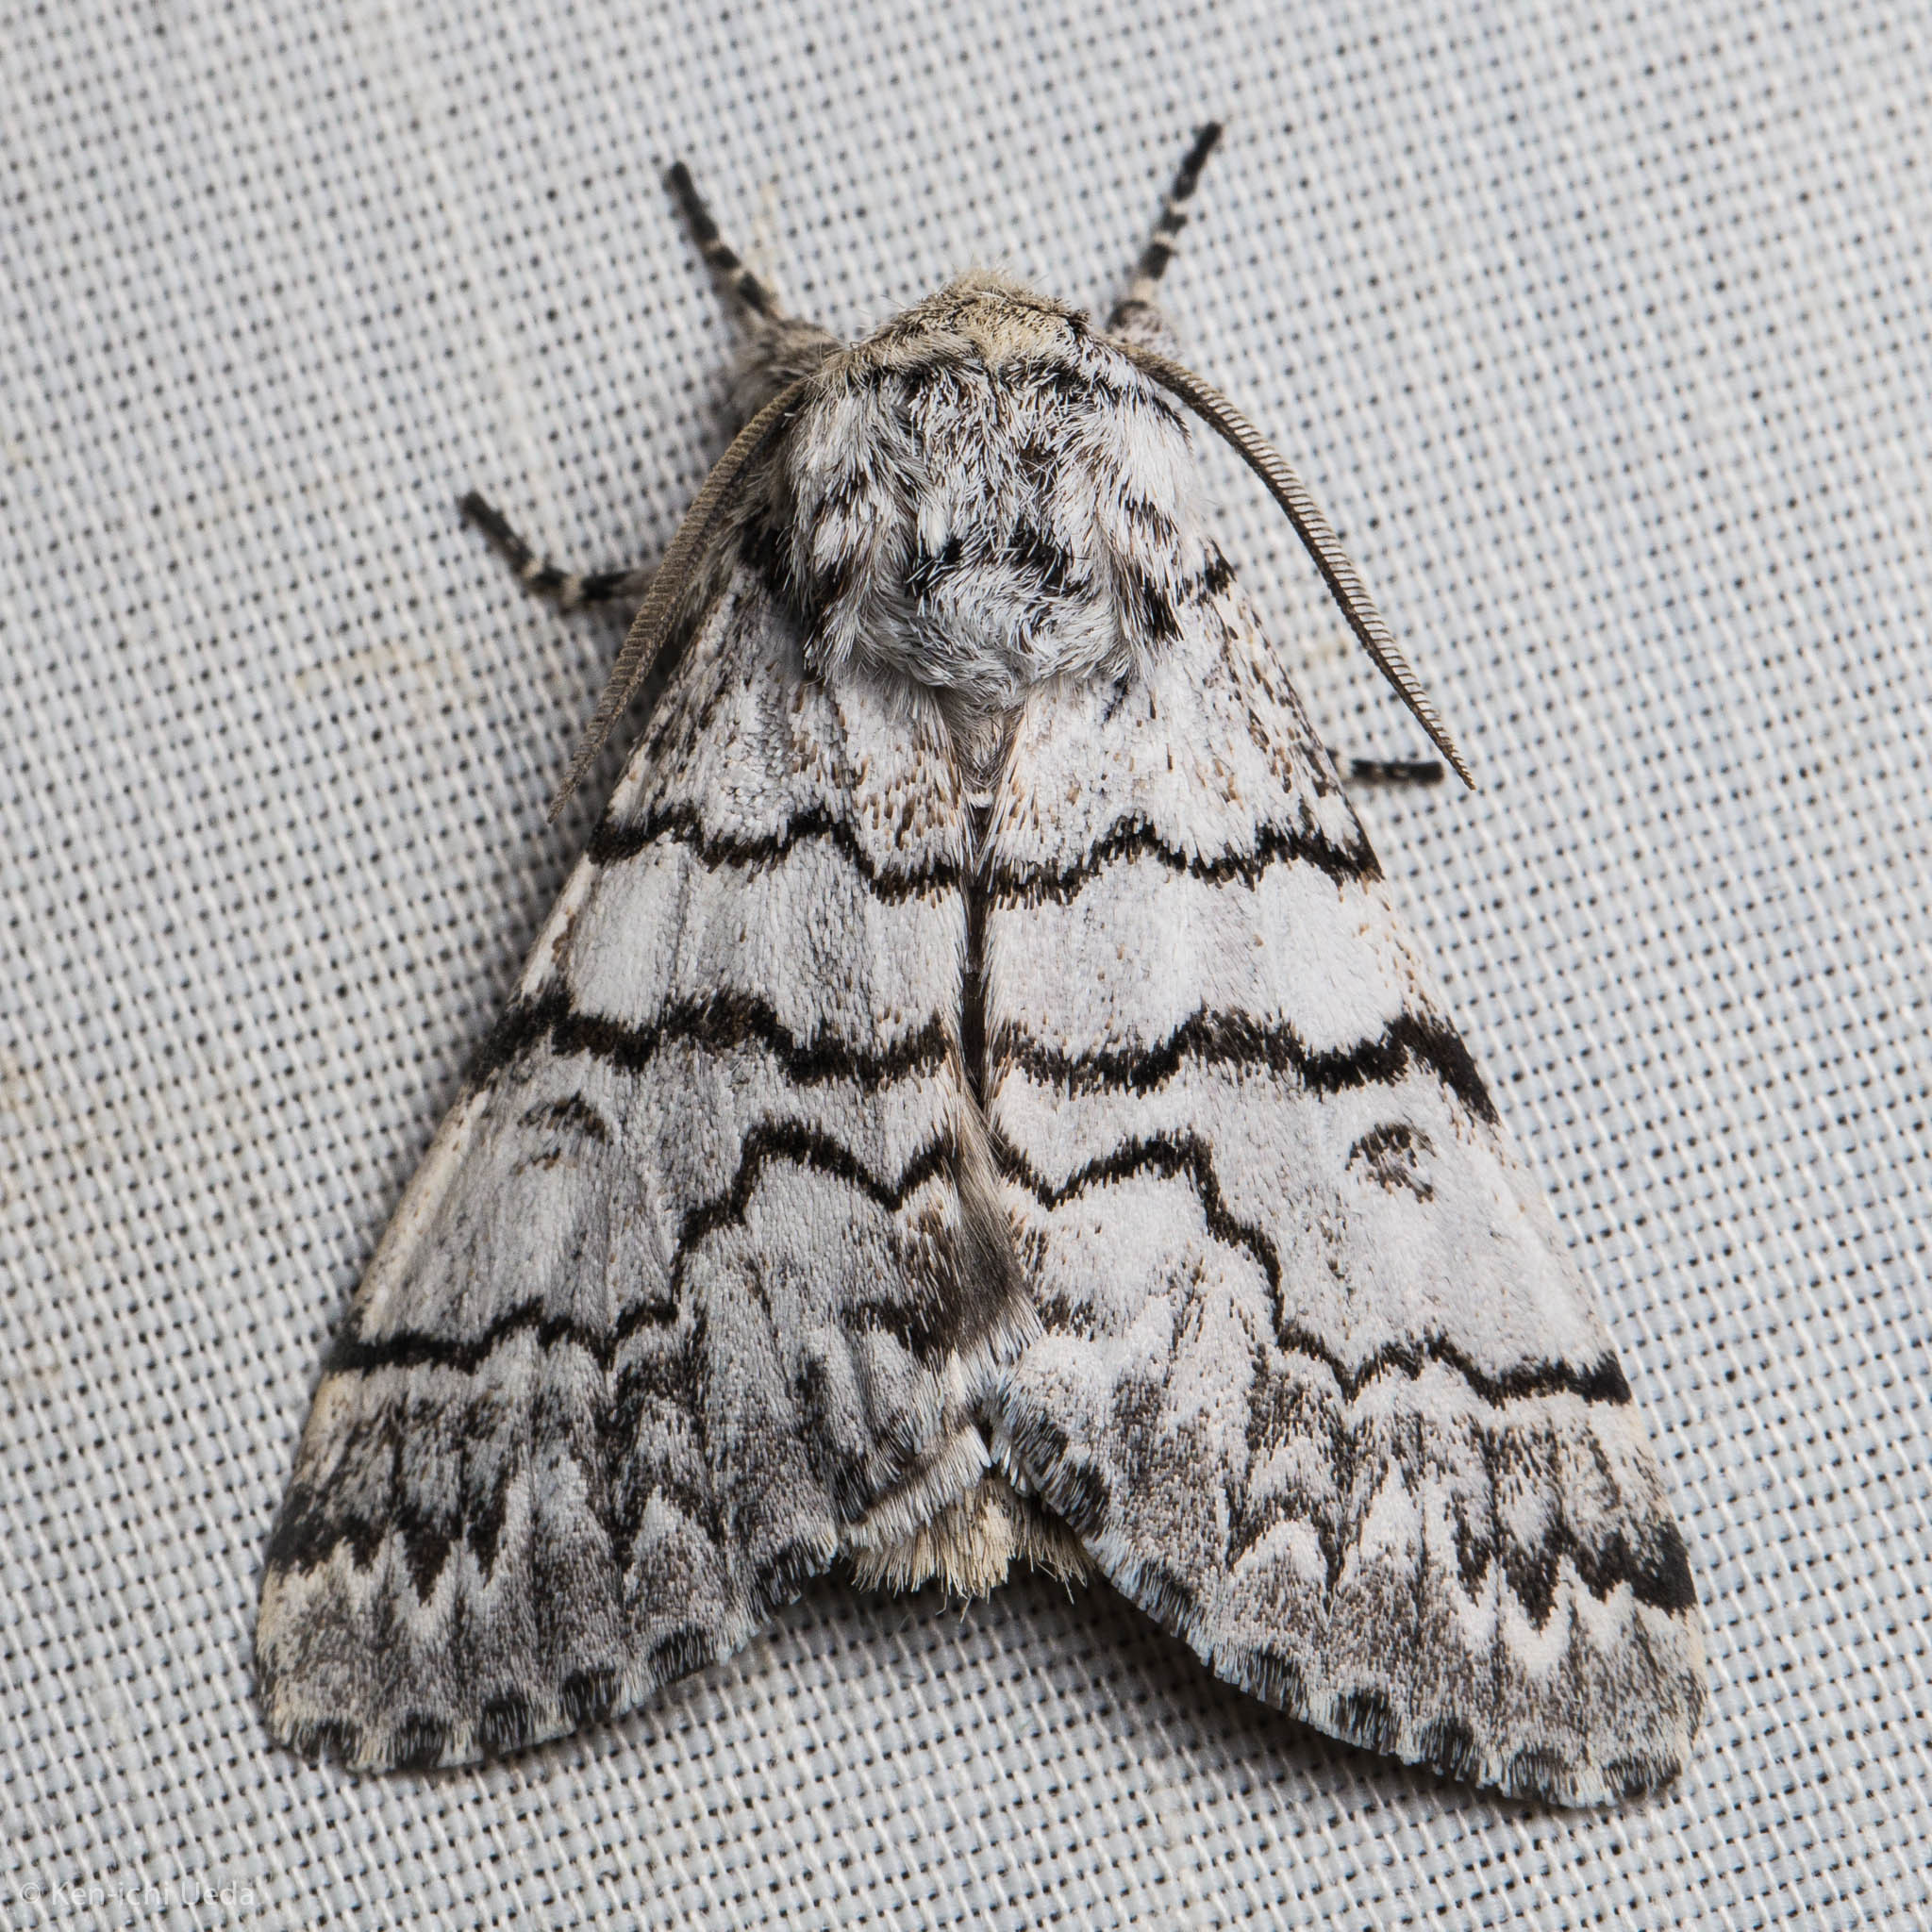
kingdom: Animalia
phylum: Arthropoda
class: Insecta
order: Lepidoptera
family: Noctuidae
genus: Panthea
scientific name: Panthea virginarius
